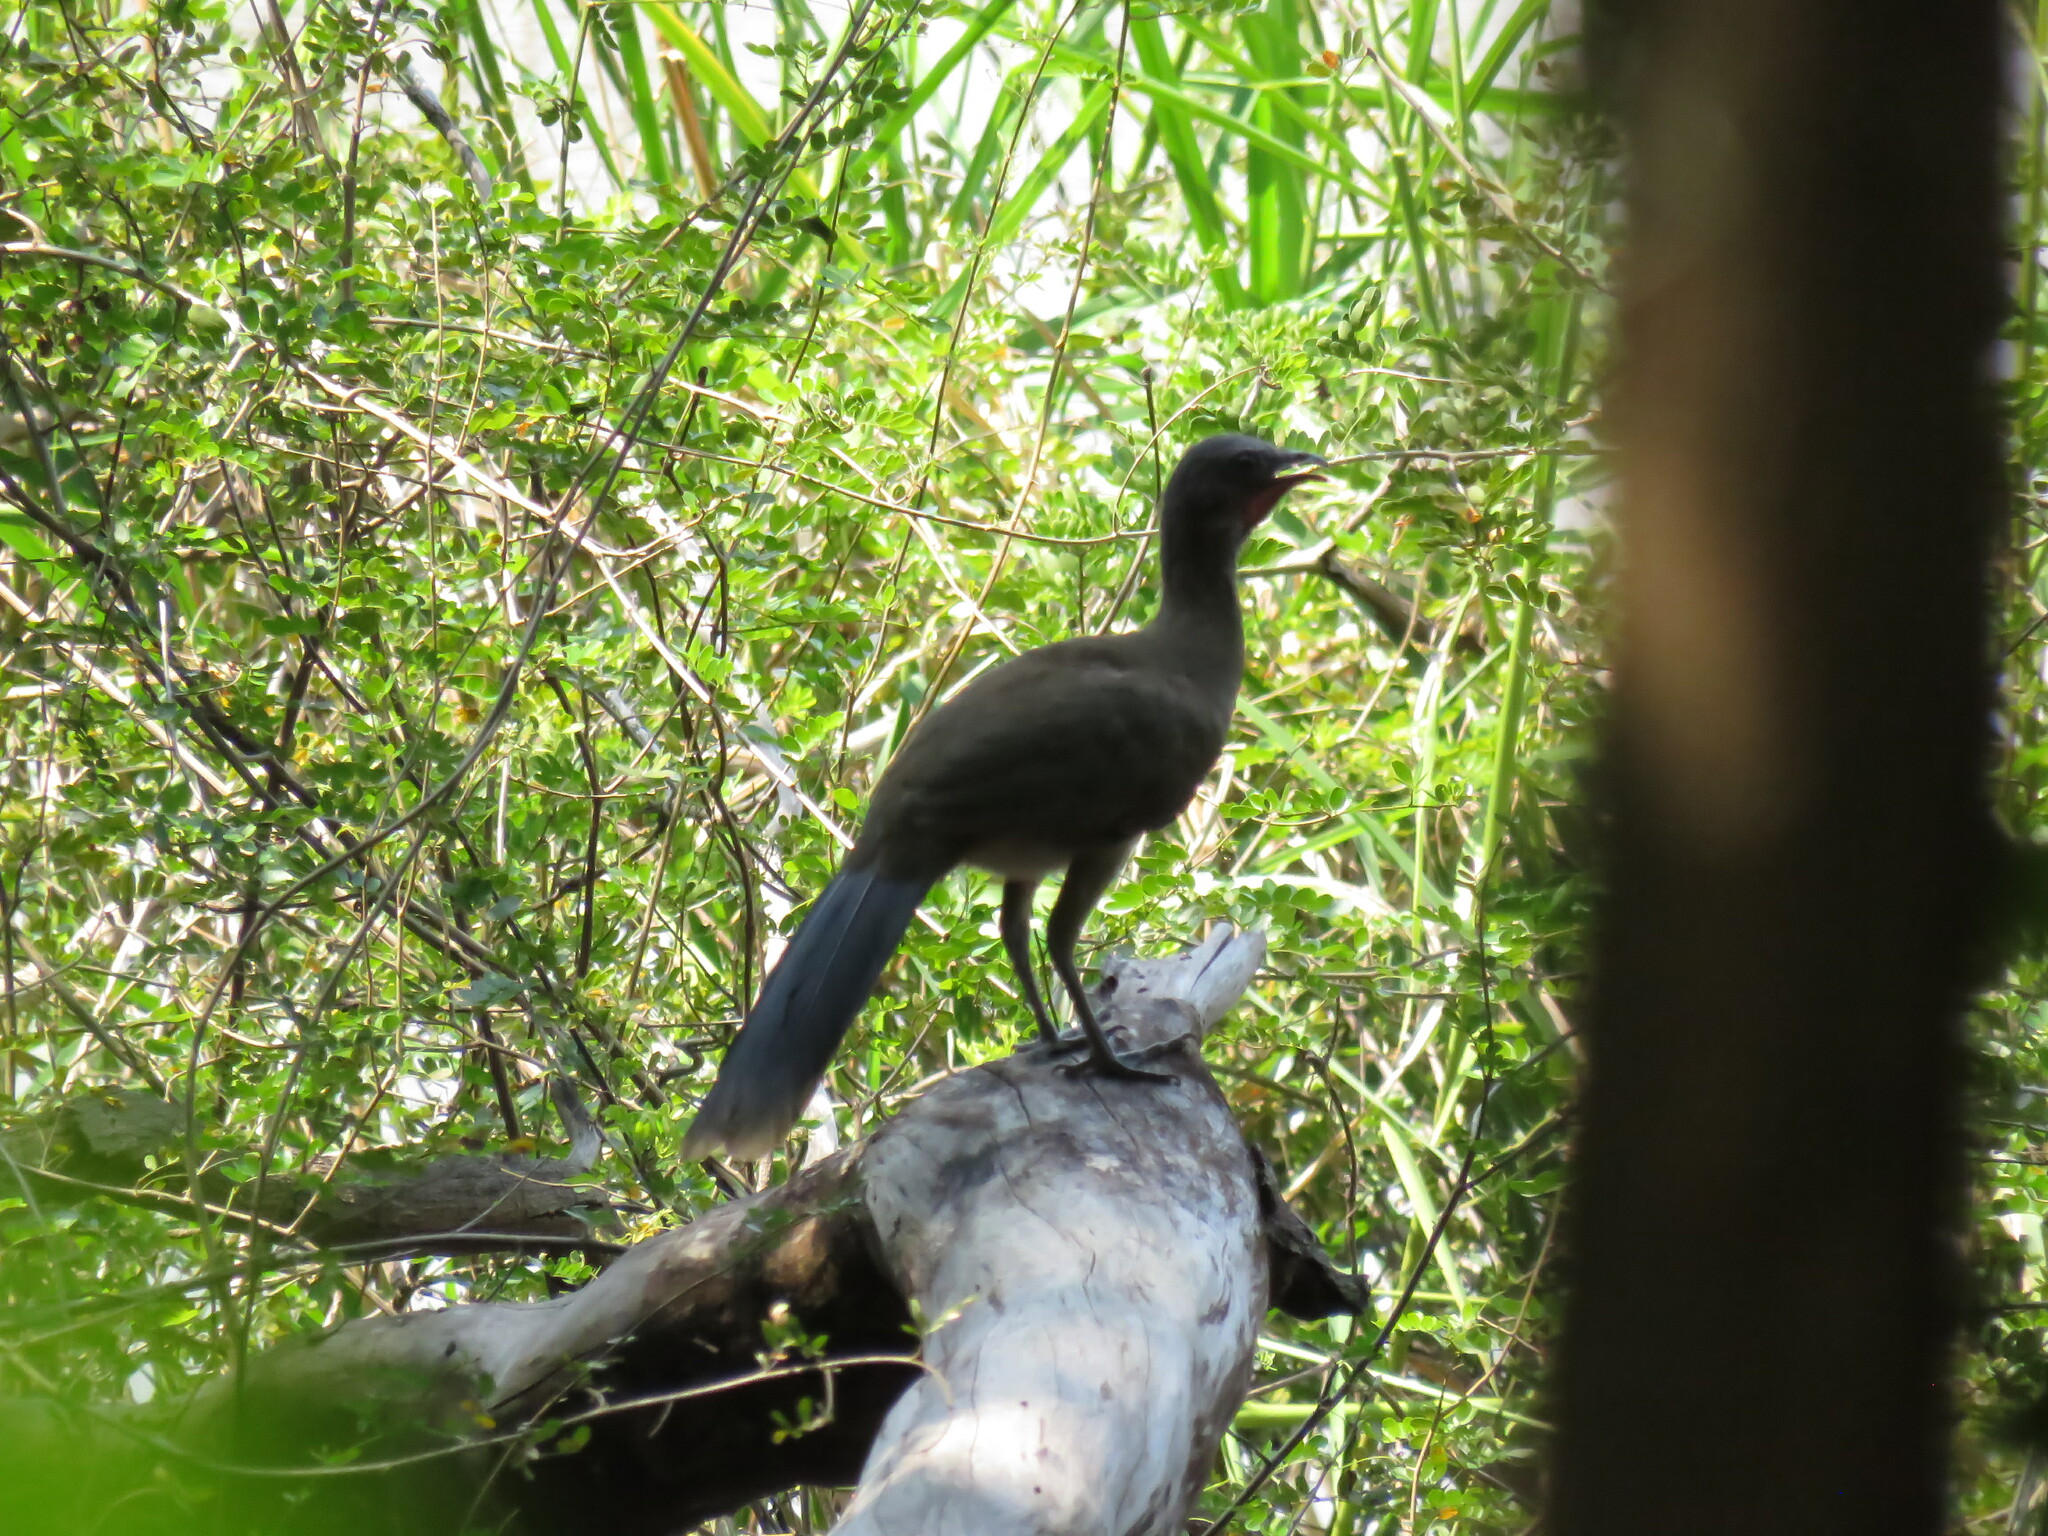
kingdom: Animalia
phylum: Chordata
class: Aves
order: Galliformes
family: Cracidae
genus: Ortalis
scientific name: Ortalis vetula
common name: Plain chachalaca
